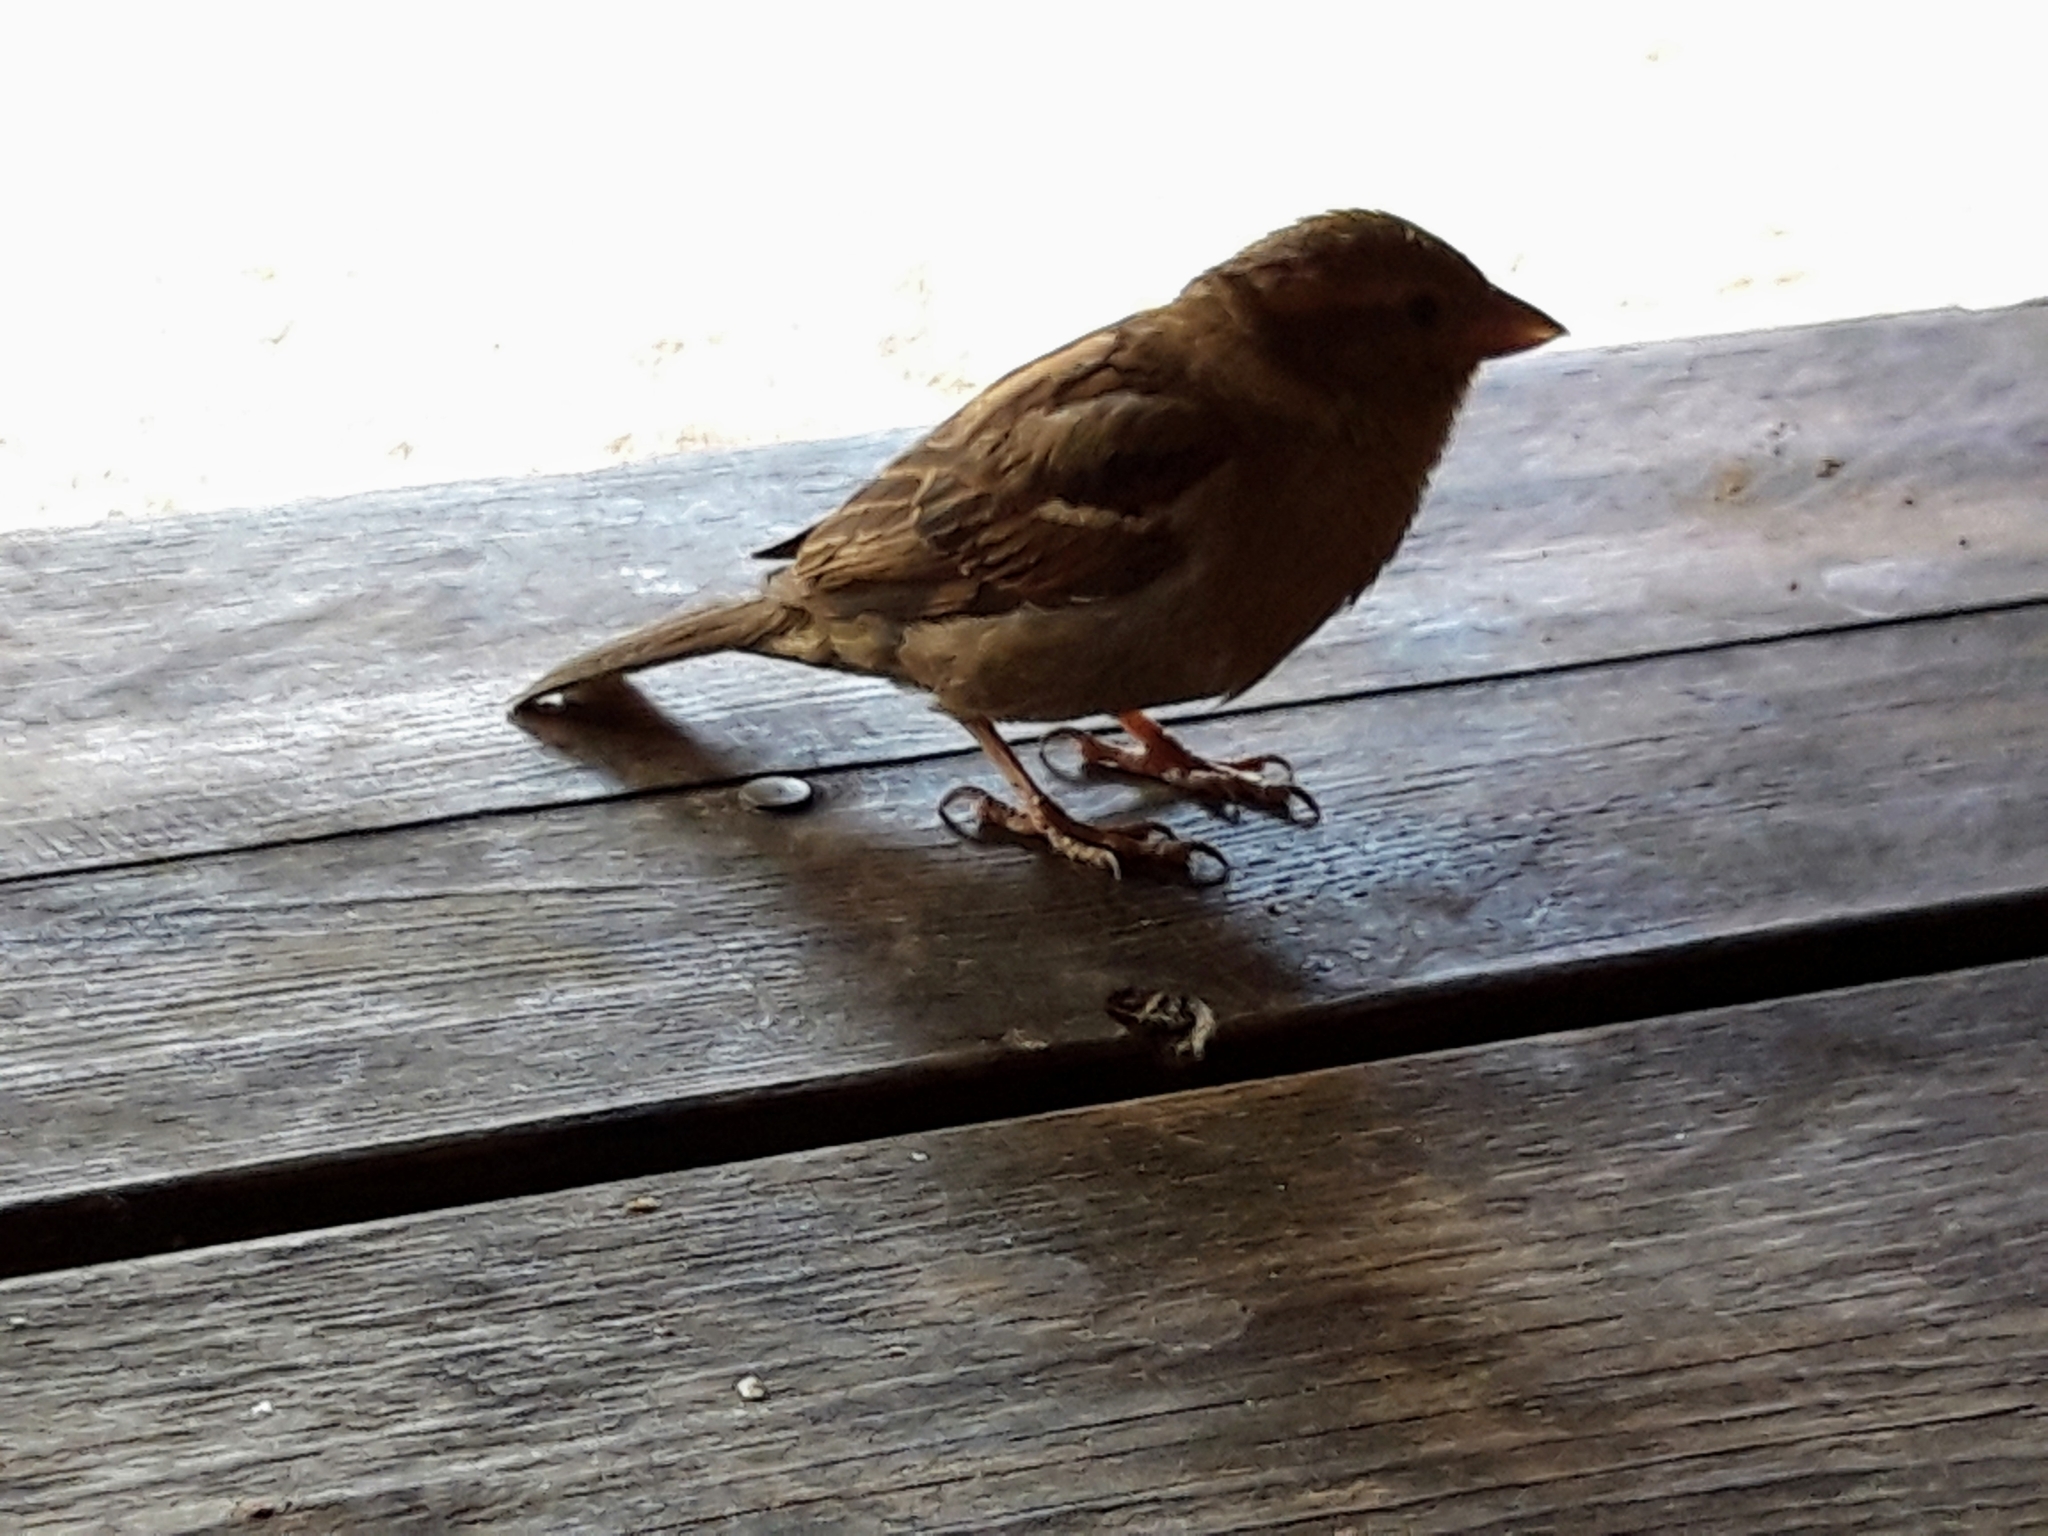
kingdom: Animalia
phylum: Chordata
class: Aves
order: Passeriformes
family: Passeridae
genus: Passer
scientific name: Passer domesticus
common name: House sparrow
